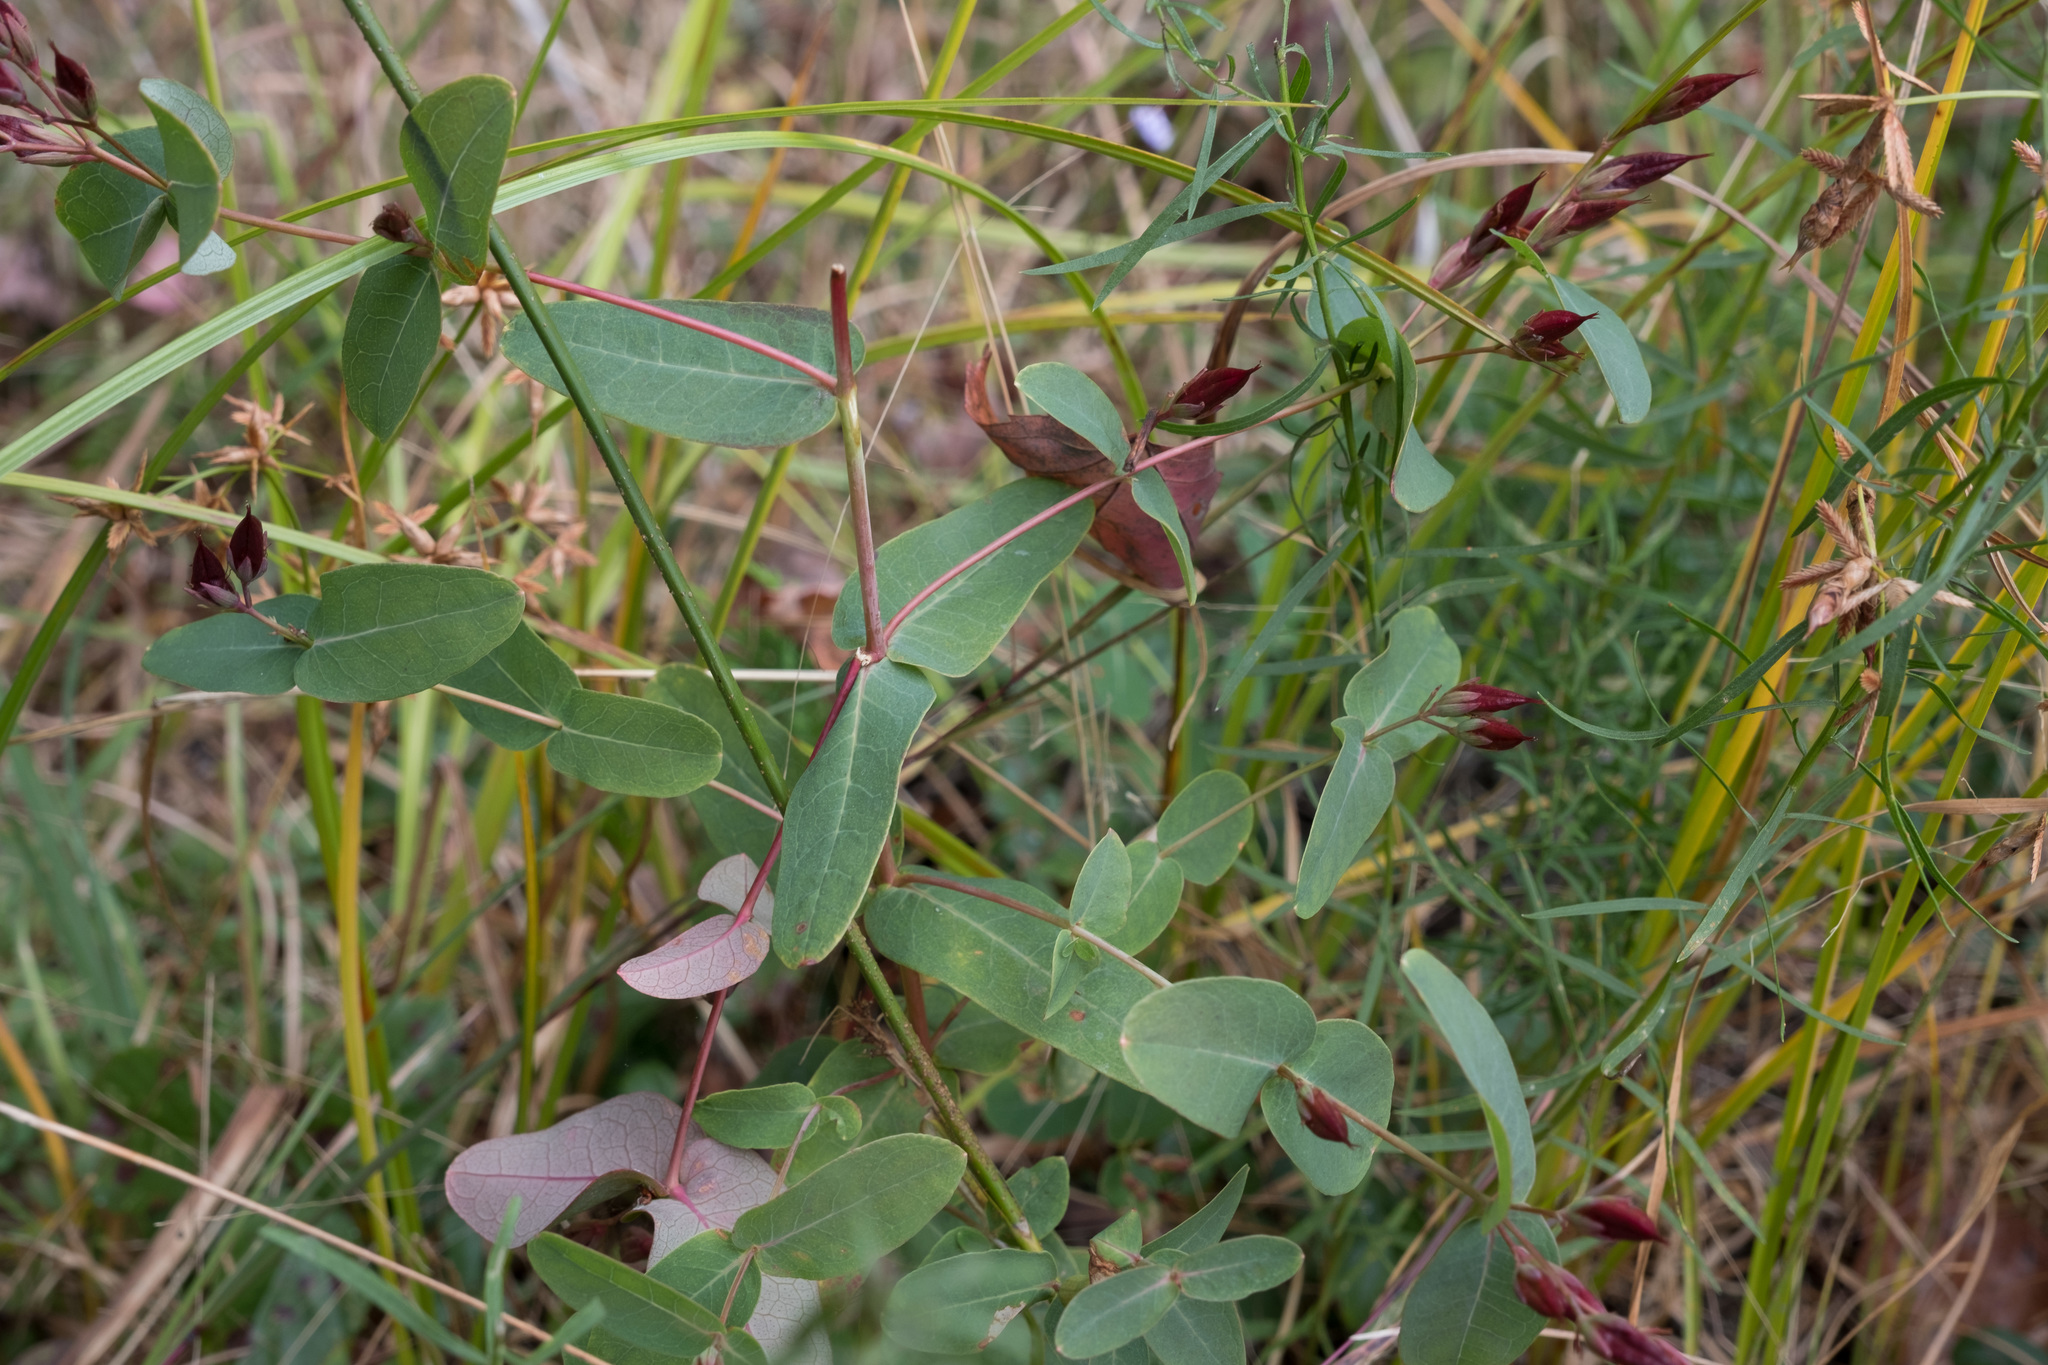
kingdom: Plantae
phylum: Tracheophyta
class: Magnoliopsida
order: Malpighiales
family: Hypericaceae
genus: Triadenum
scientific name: Triadenum virginicum
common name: Marsh st. john's-wort
